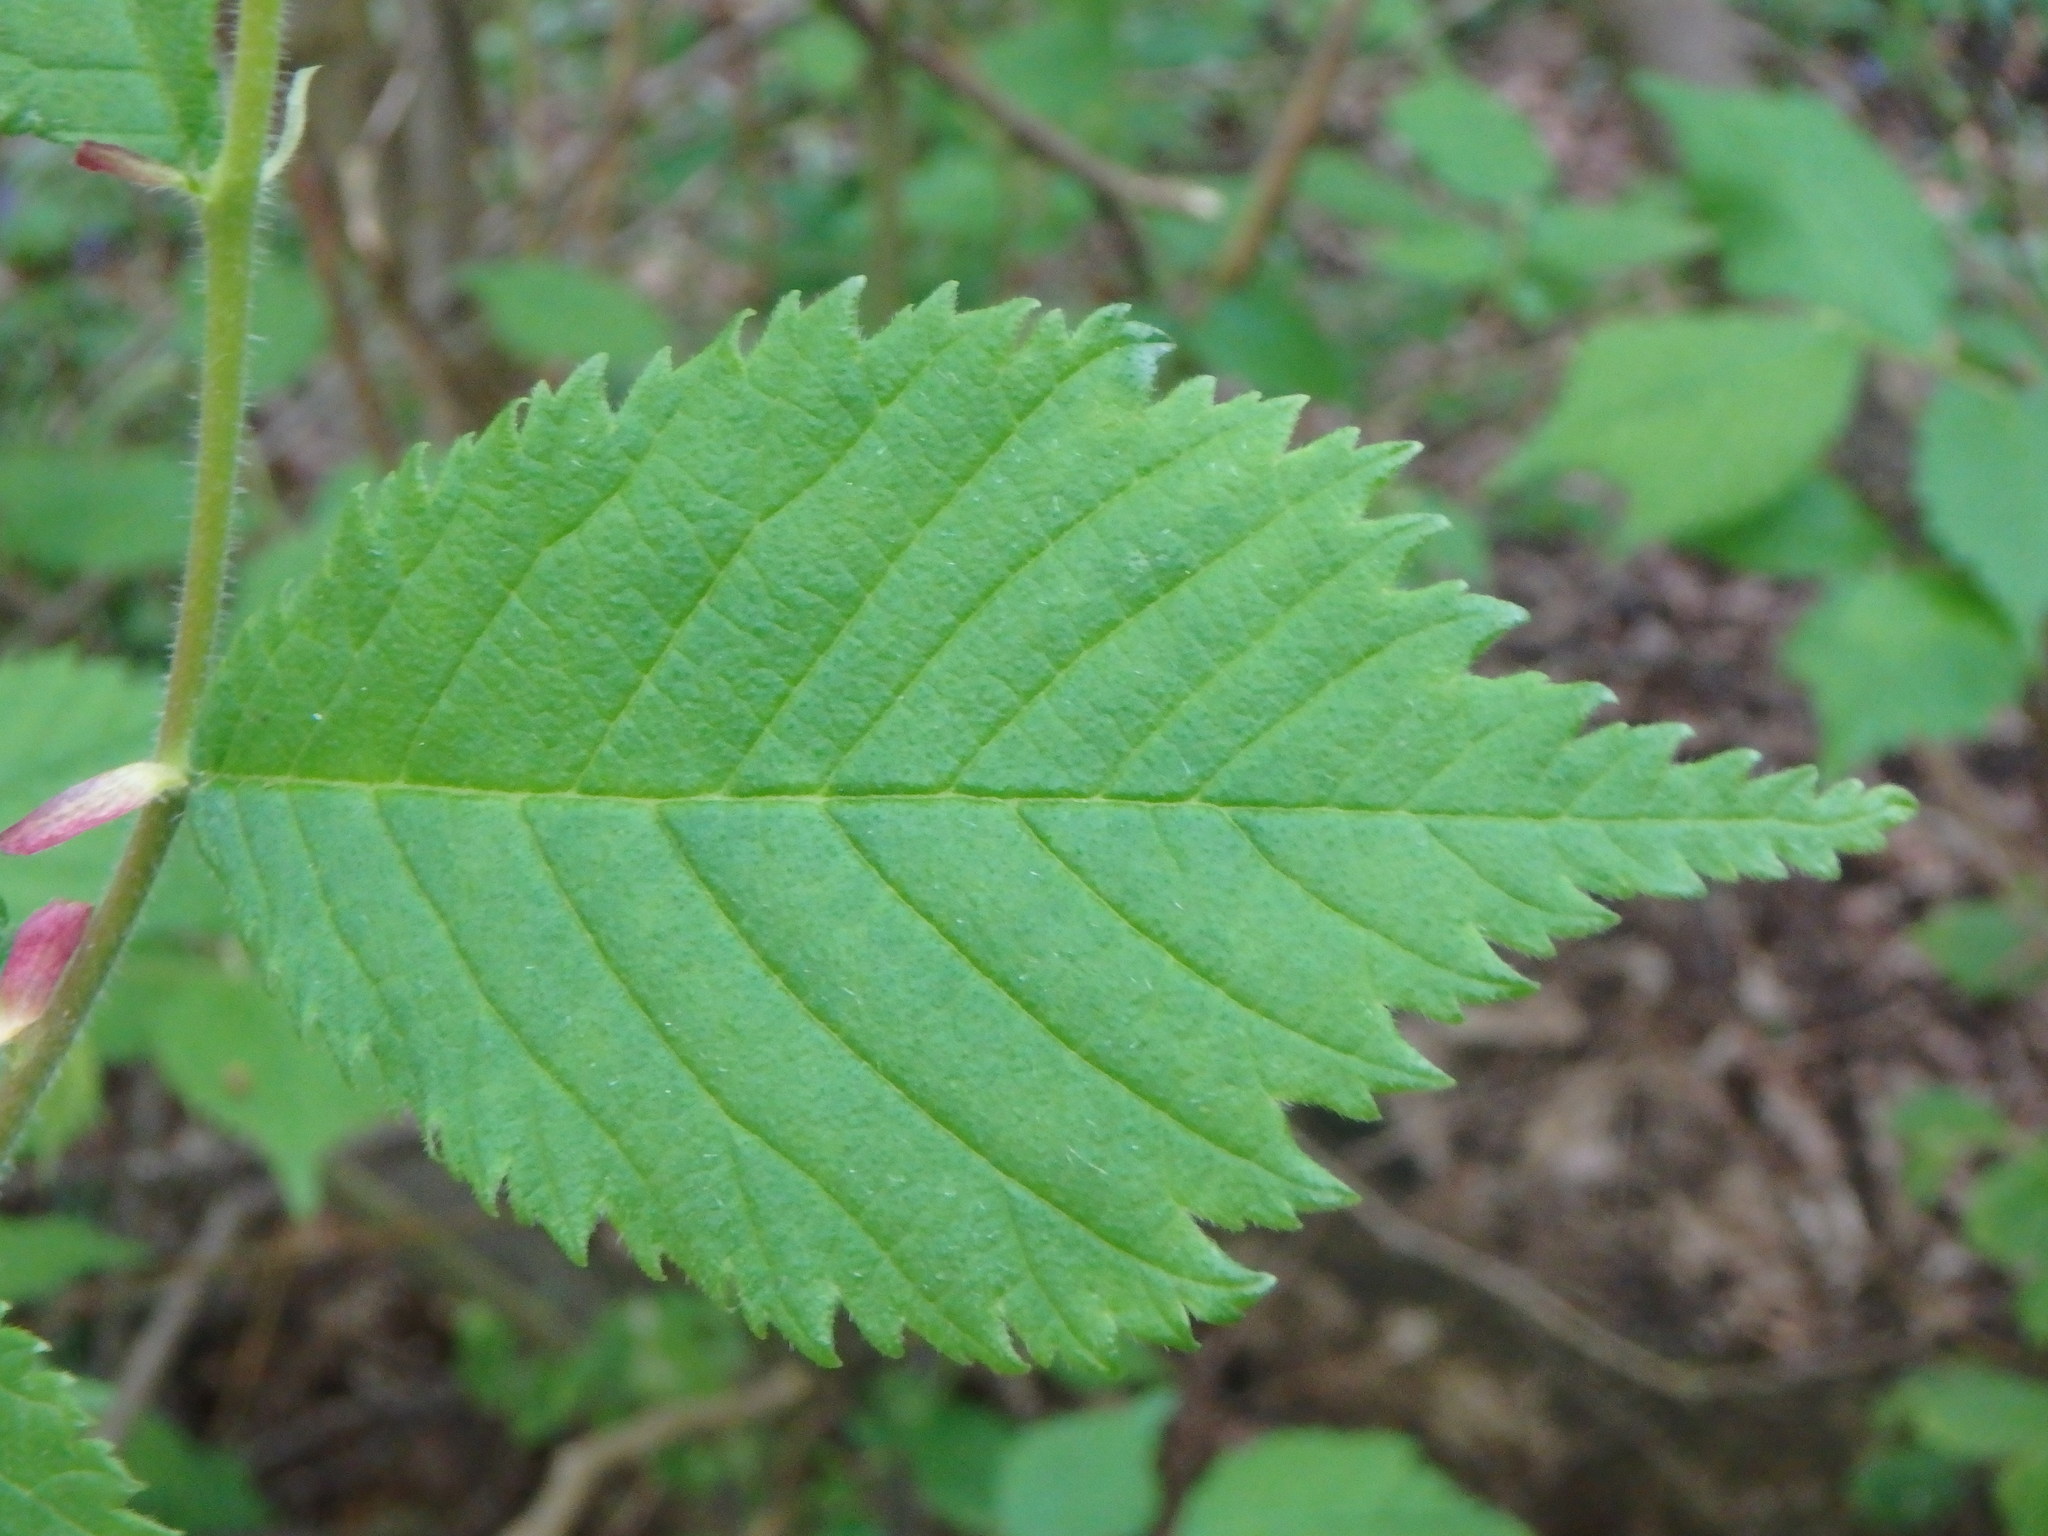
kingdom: Plantae
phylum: Tracheophyta
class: Magnoliopsida
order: Rosales
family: Ulmaceae
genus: Ulmus
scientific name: Ulmus glabra
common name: Wych elm
